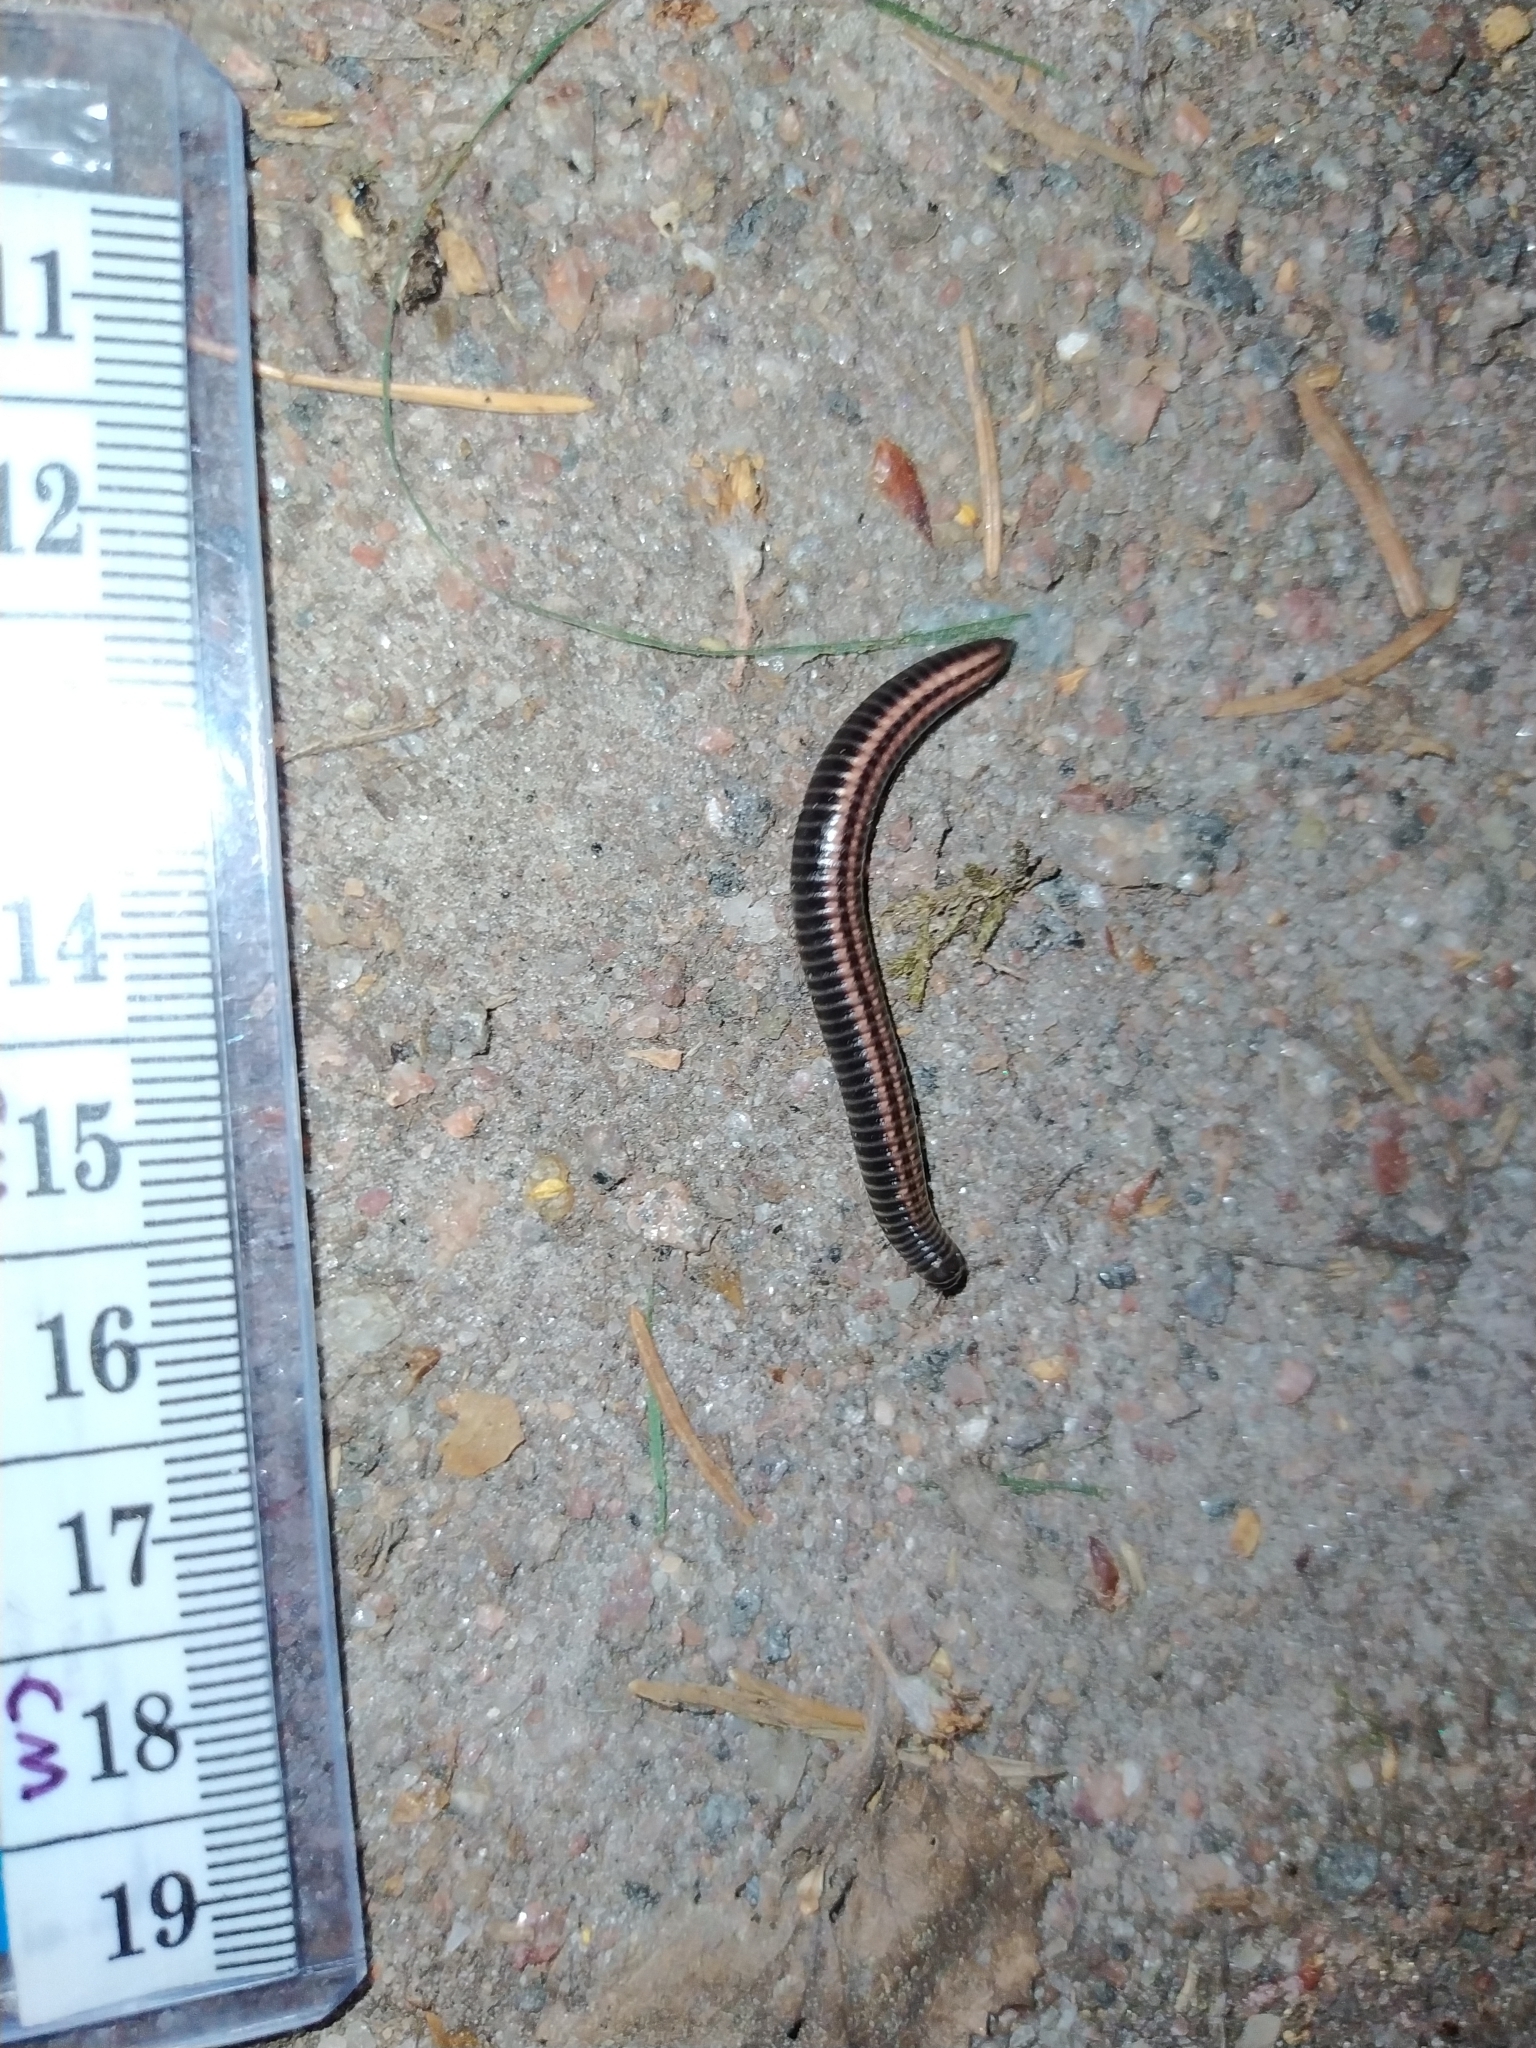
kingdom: Animalia
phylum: Arthropoda
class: Diplopoda
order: Julida
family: Julidae
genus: Ommatoiulus
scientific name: Ommatoiulus sabulosus
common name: Striped millipede
